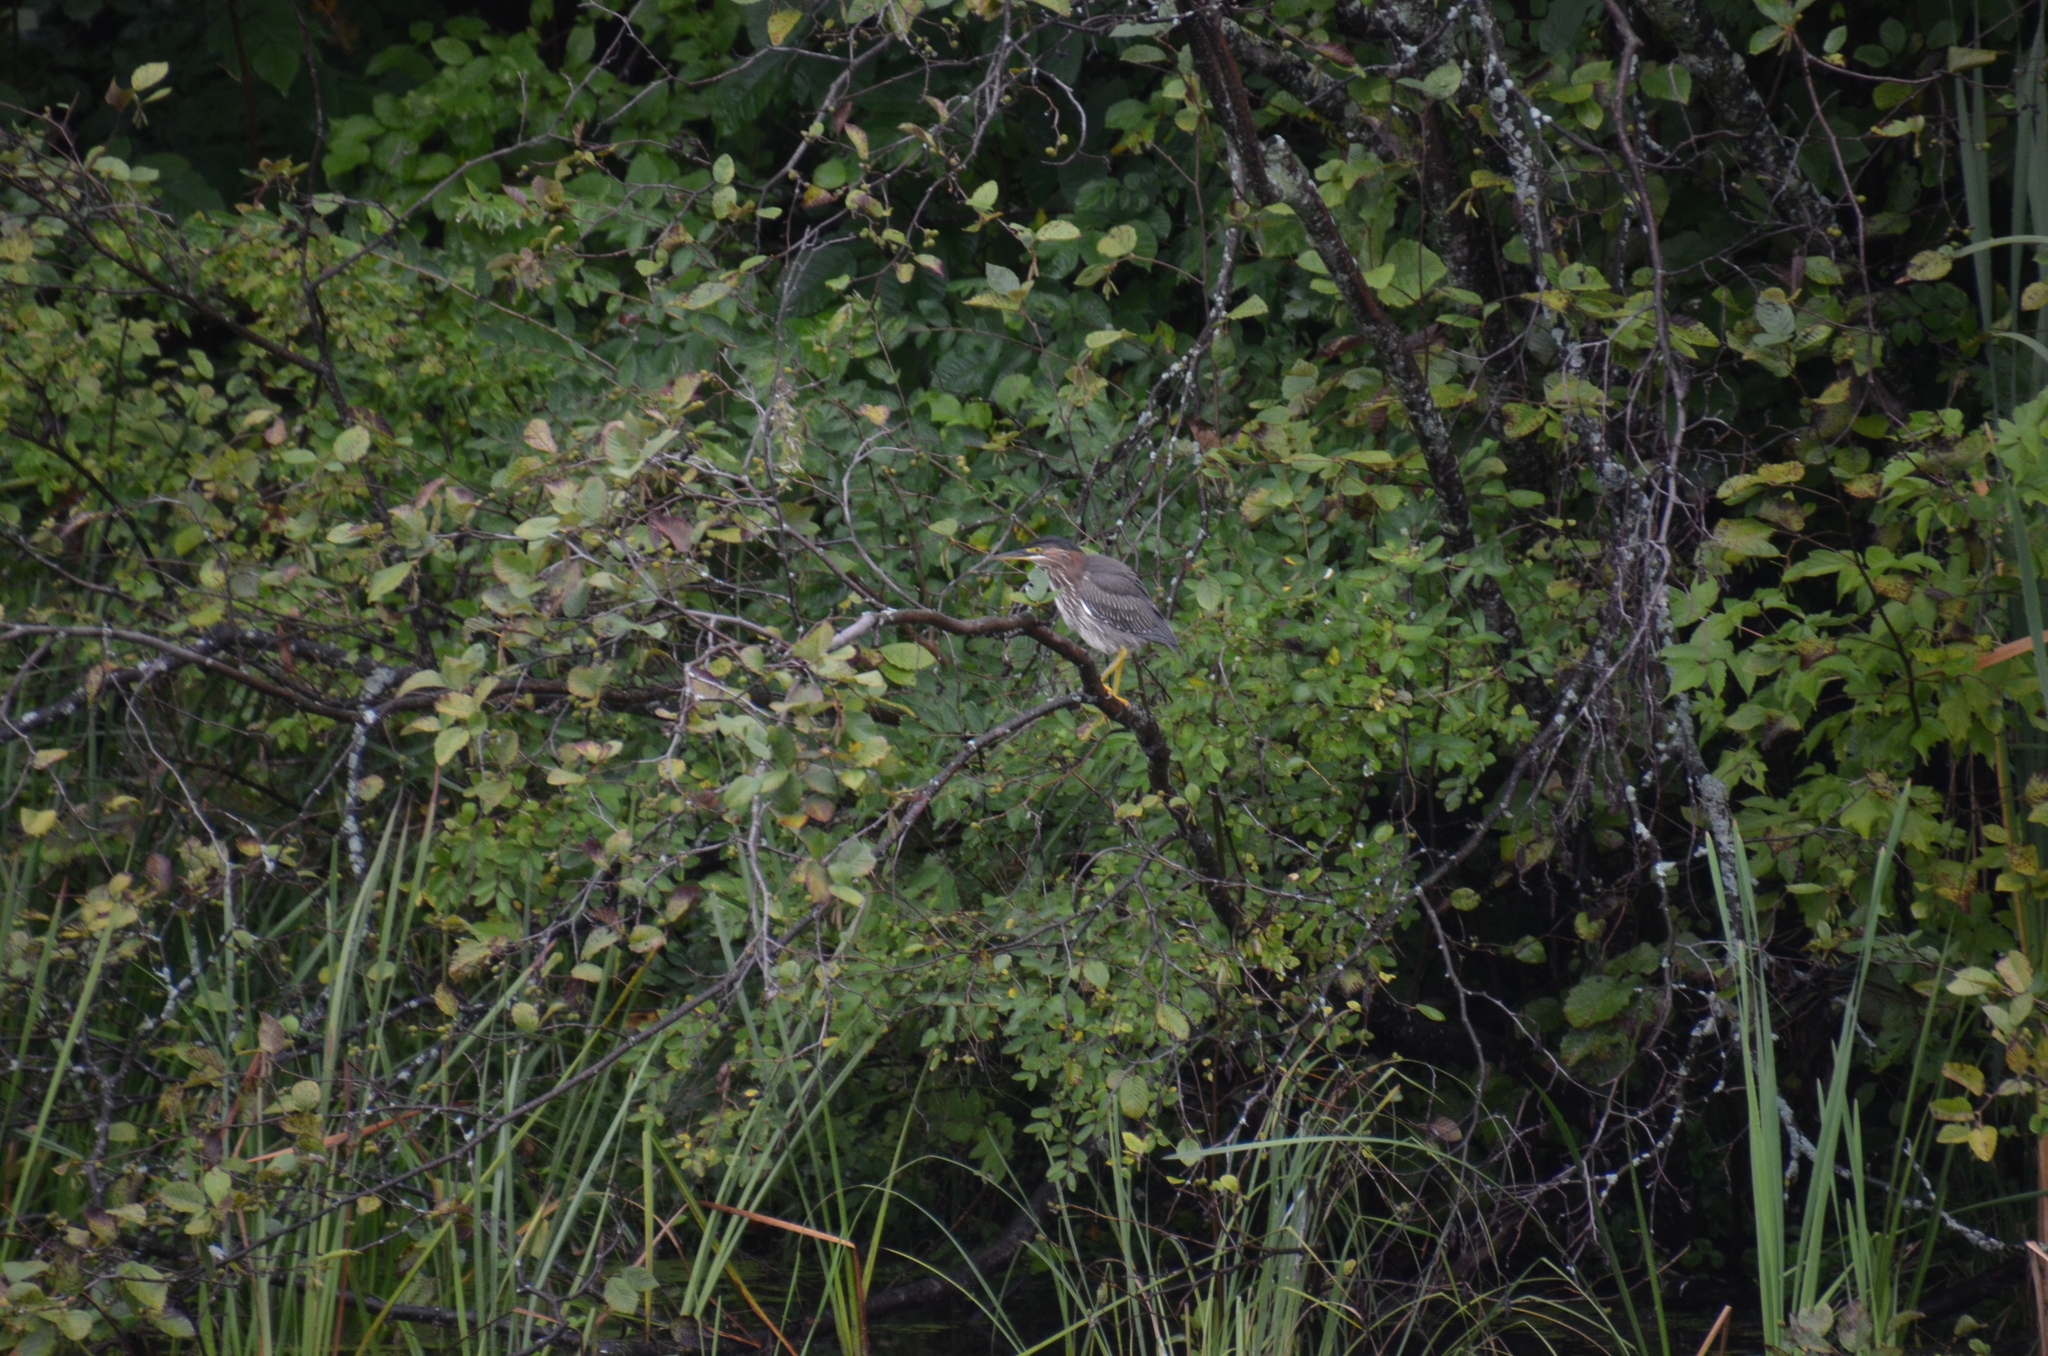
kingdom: Animalia
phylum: Chordata
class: Aves
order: Pelecaniformes
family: Ardeidae
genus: Butorides
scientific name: Butorides virescens
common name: Green heron
